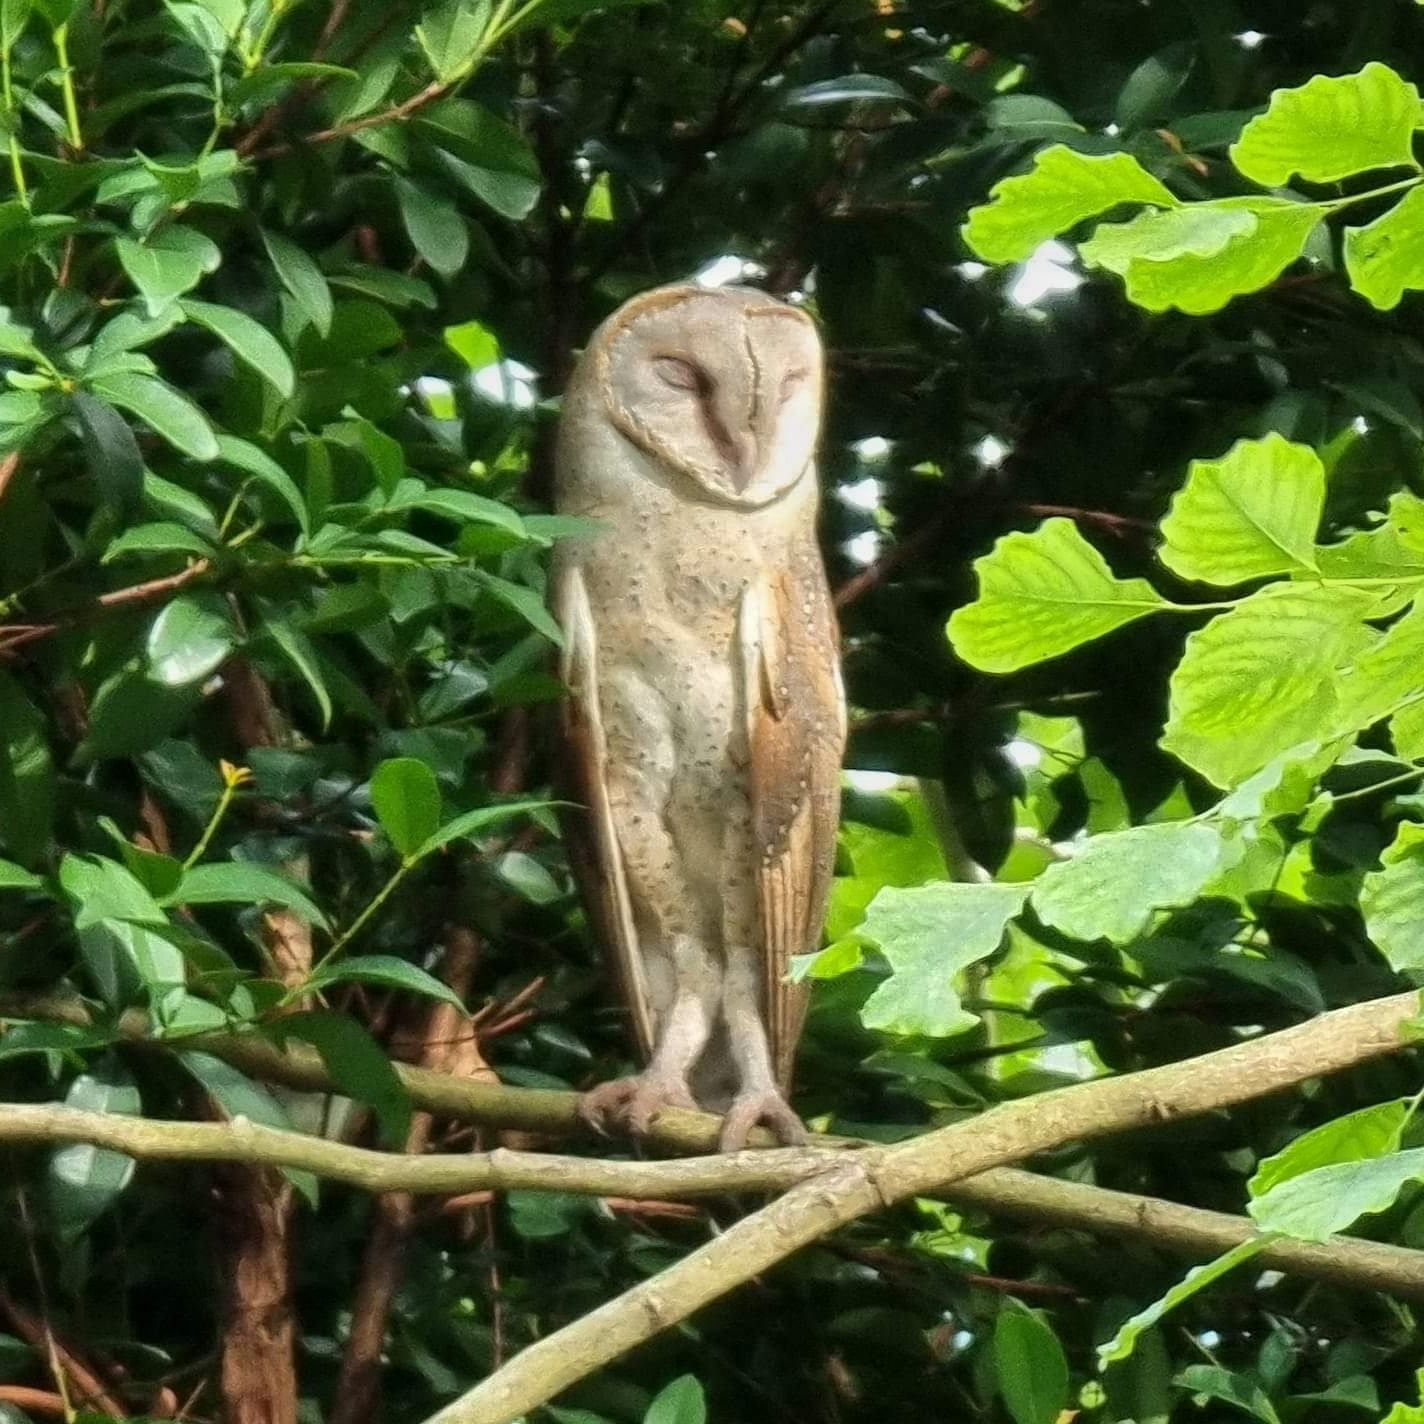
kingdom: Animalia
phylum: Chordata
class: Aves
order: Strigiformes
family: Tytonidae
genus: Tyto
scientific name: Tyto alba
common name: Barn owl
